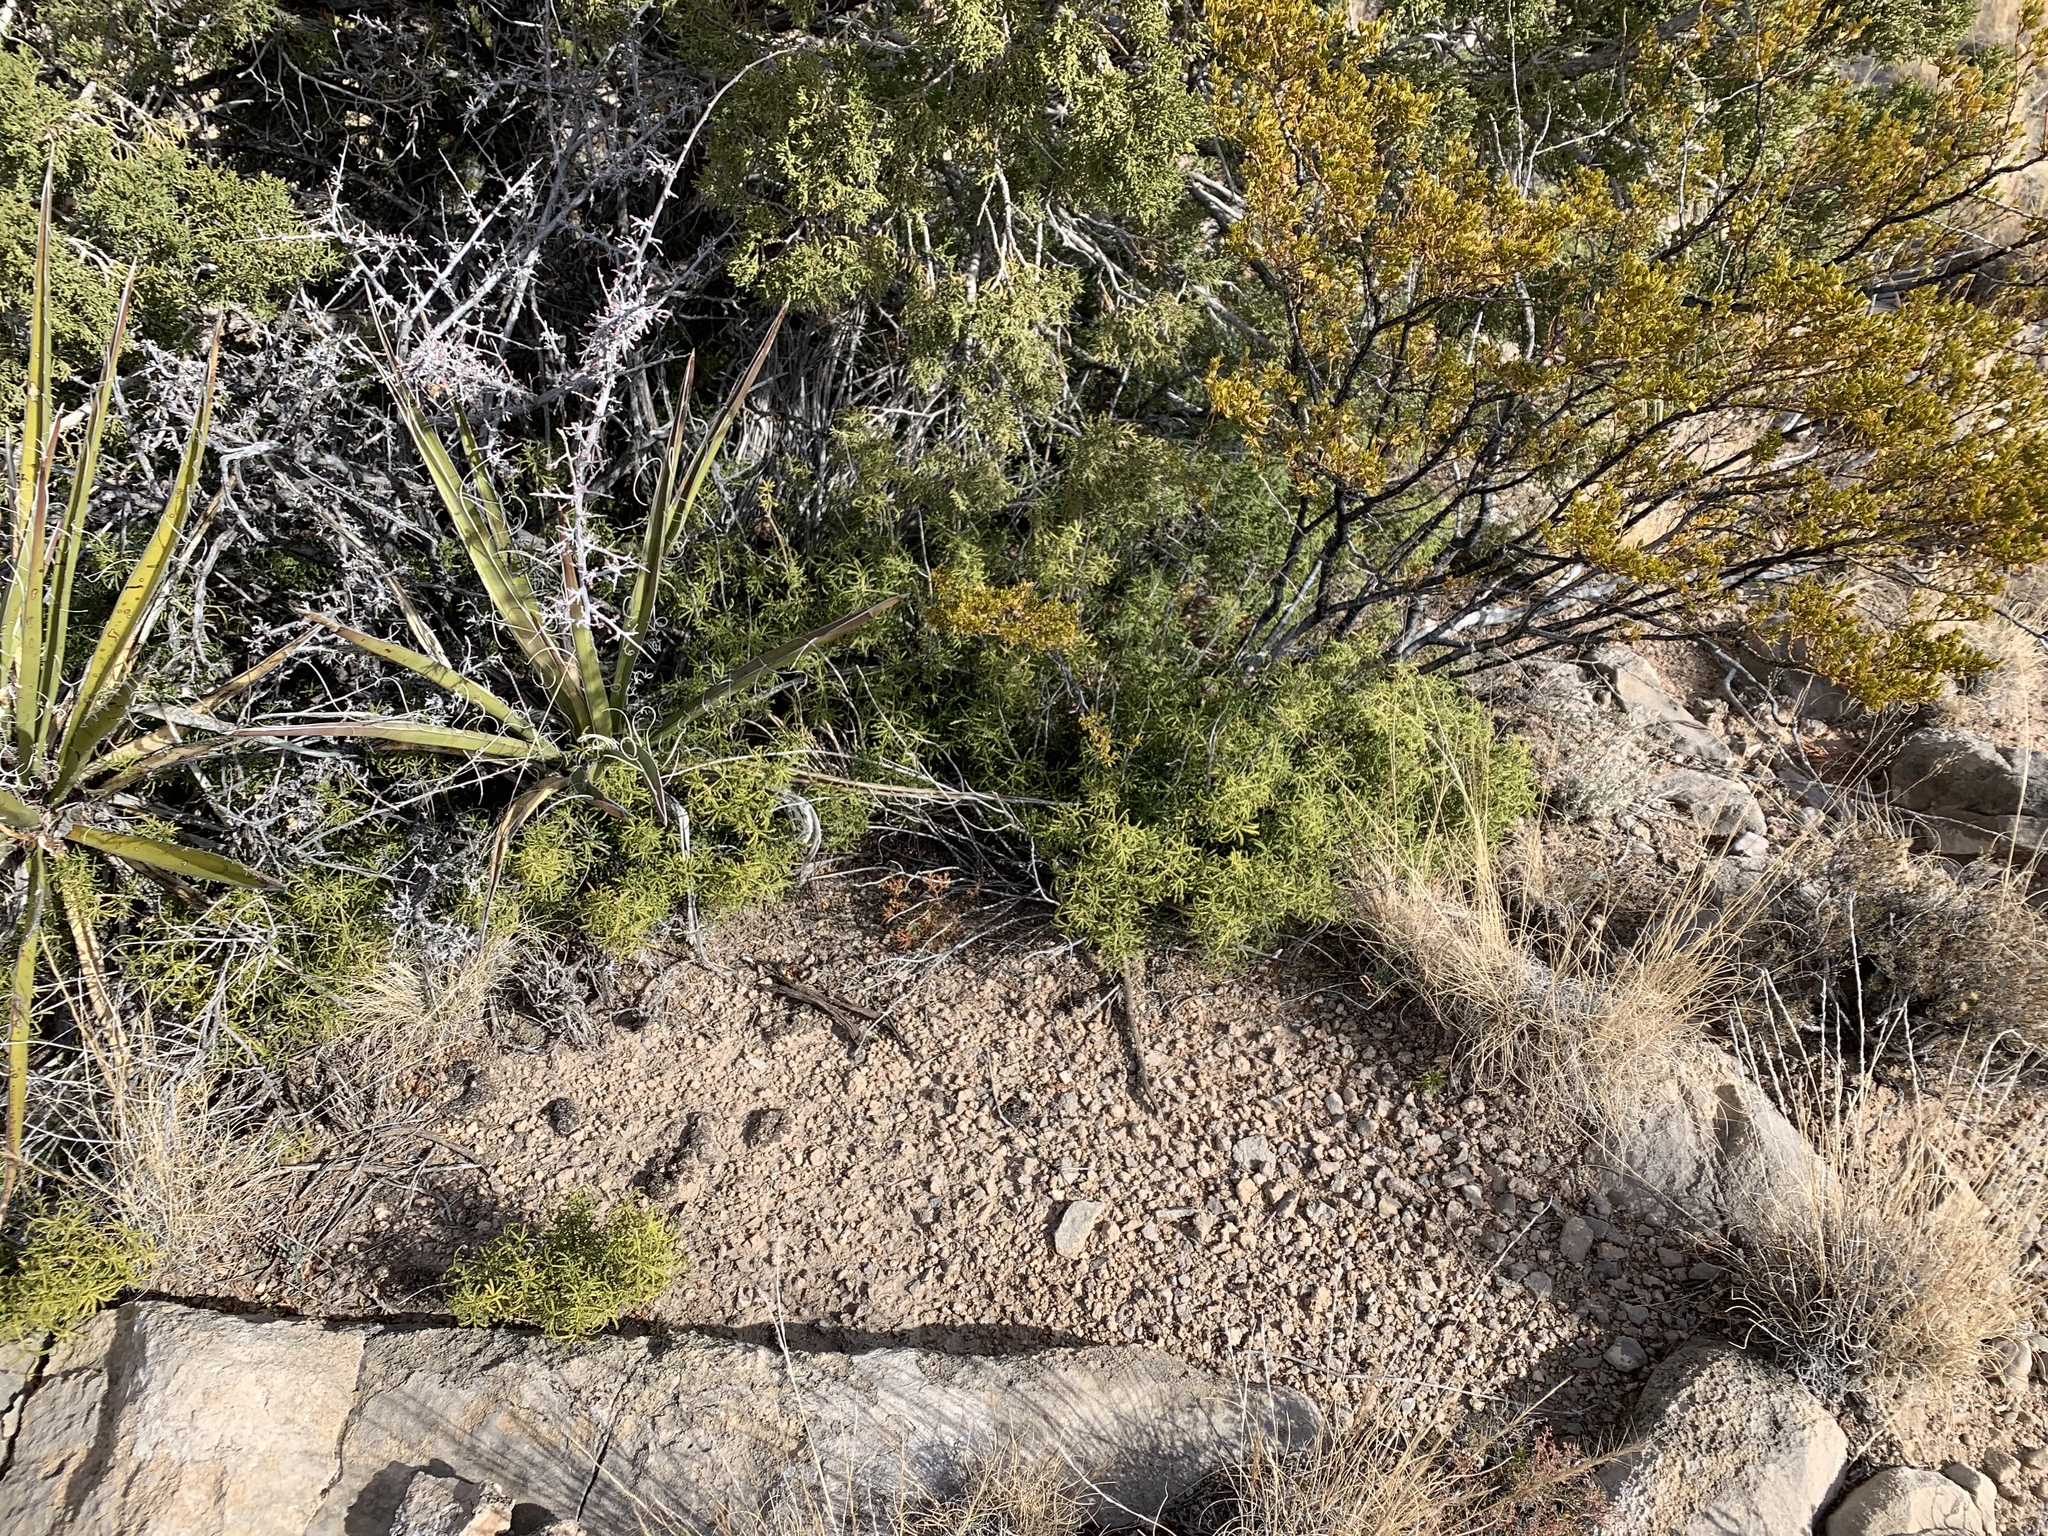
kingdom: Plantae
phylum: Tracheophyta
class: Magnoliopsida
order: Sapindales
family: Rutaceae
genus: Choisya
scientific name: Choisya dumosa
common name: Mexican-orange
